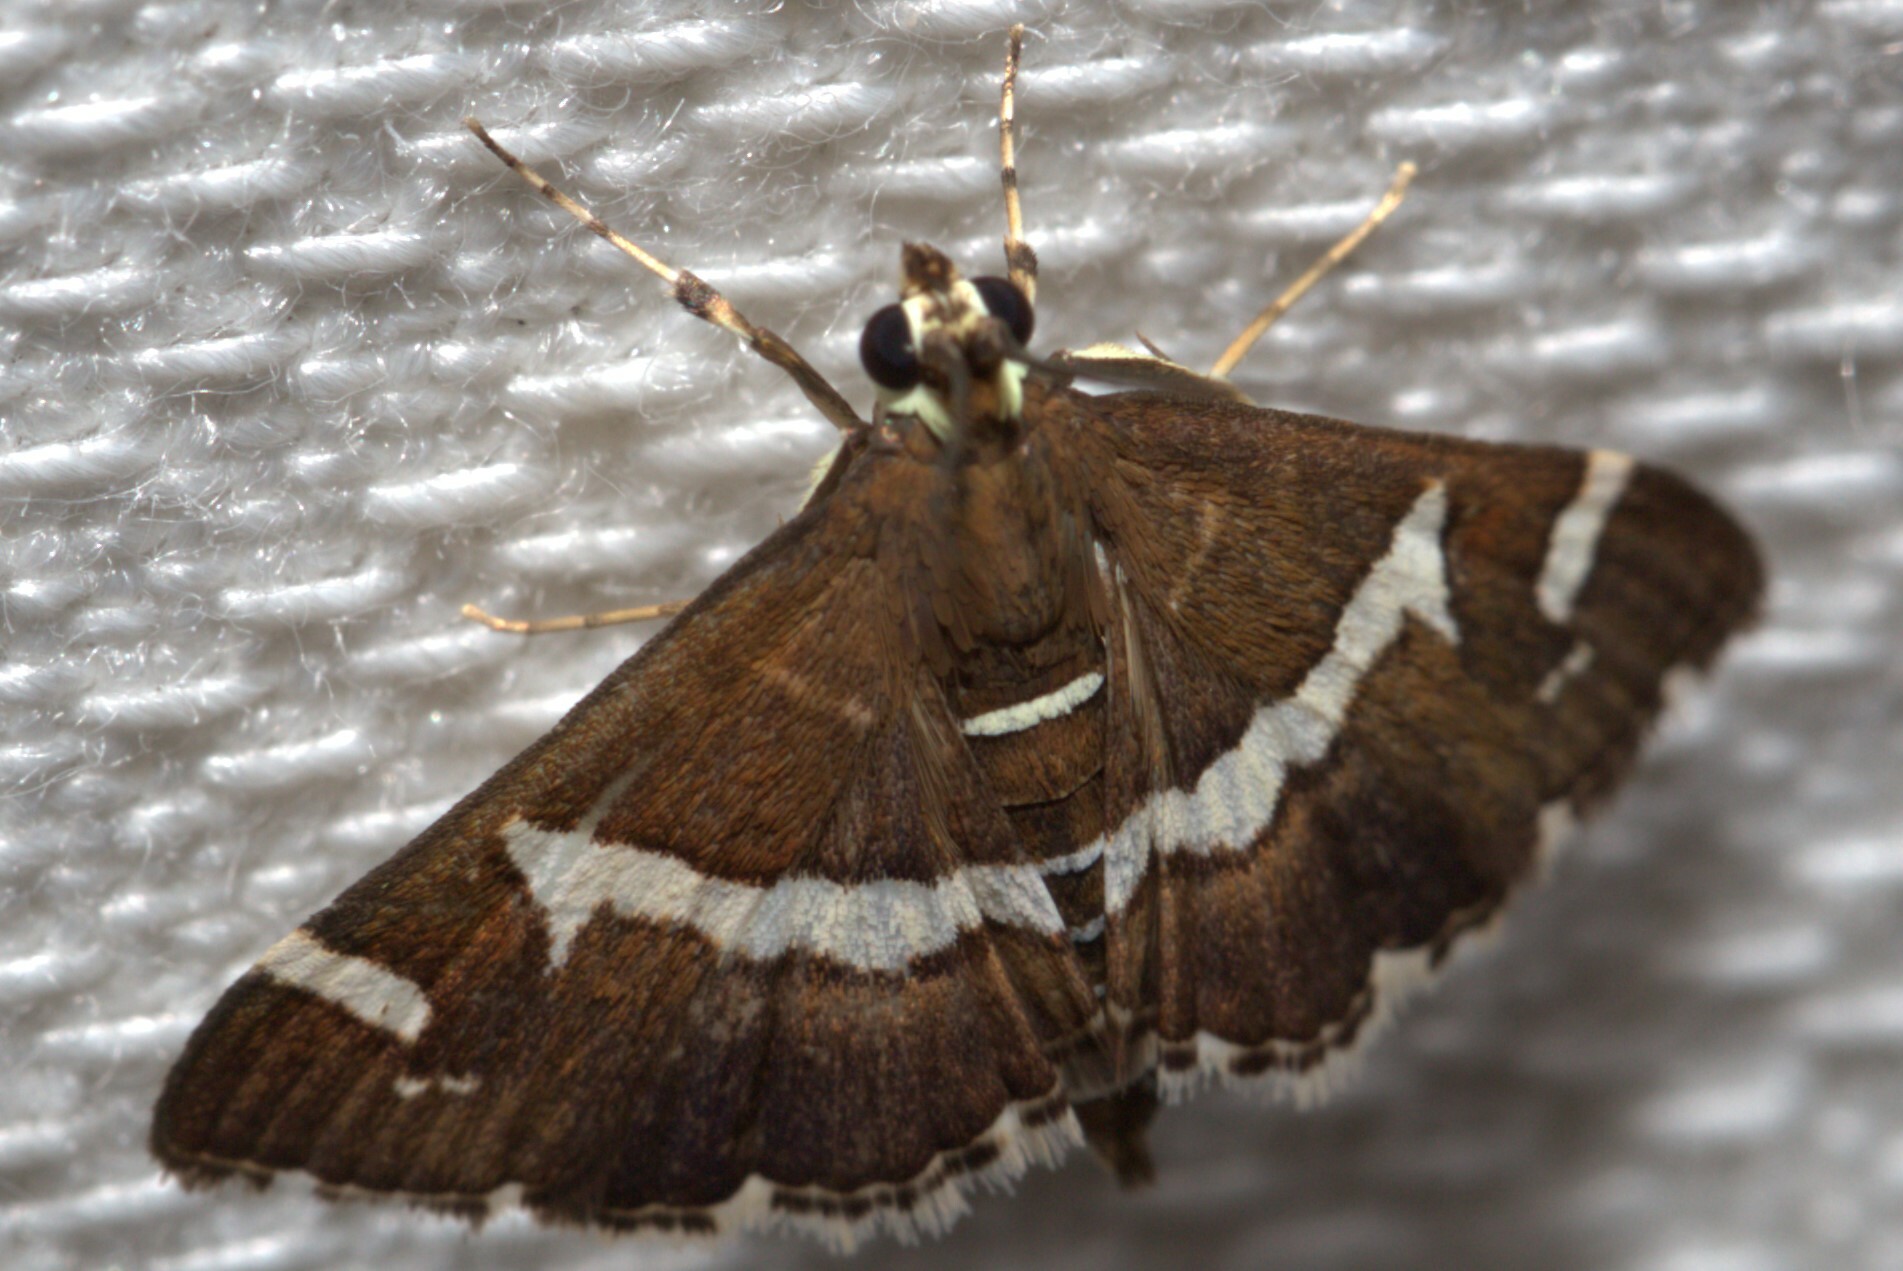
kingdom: Animalia
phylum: Arthropoda
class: Insecta
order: Lepidoptera
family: Crambidae
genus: Spoladea
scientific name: Spoladea recurvalis
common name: Beet webworm moth
